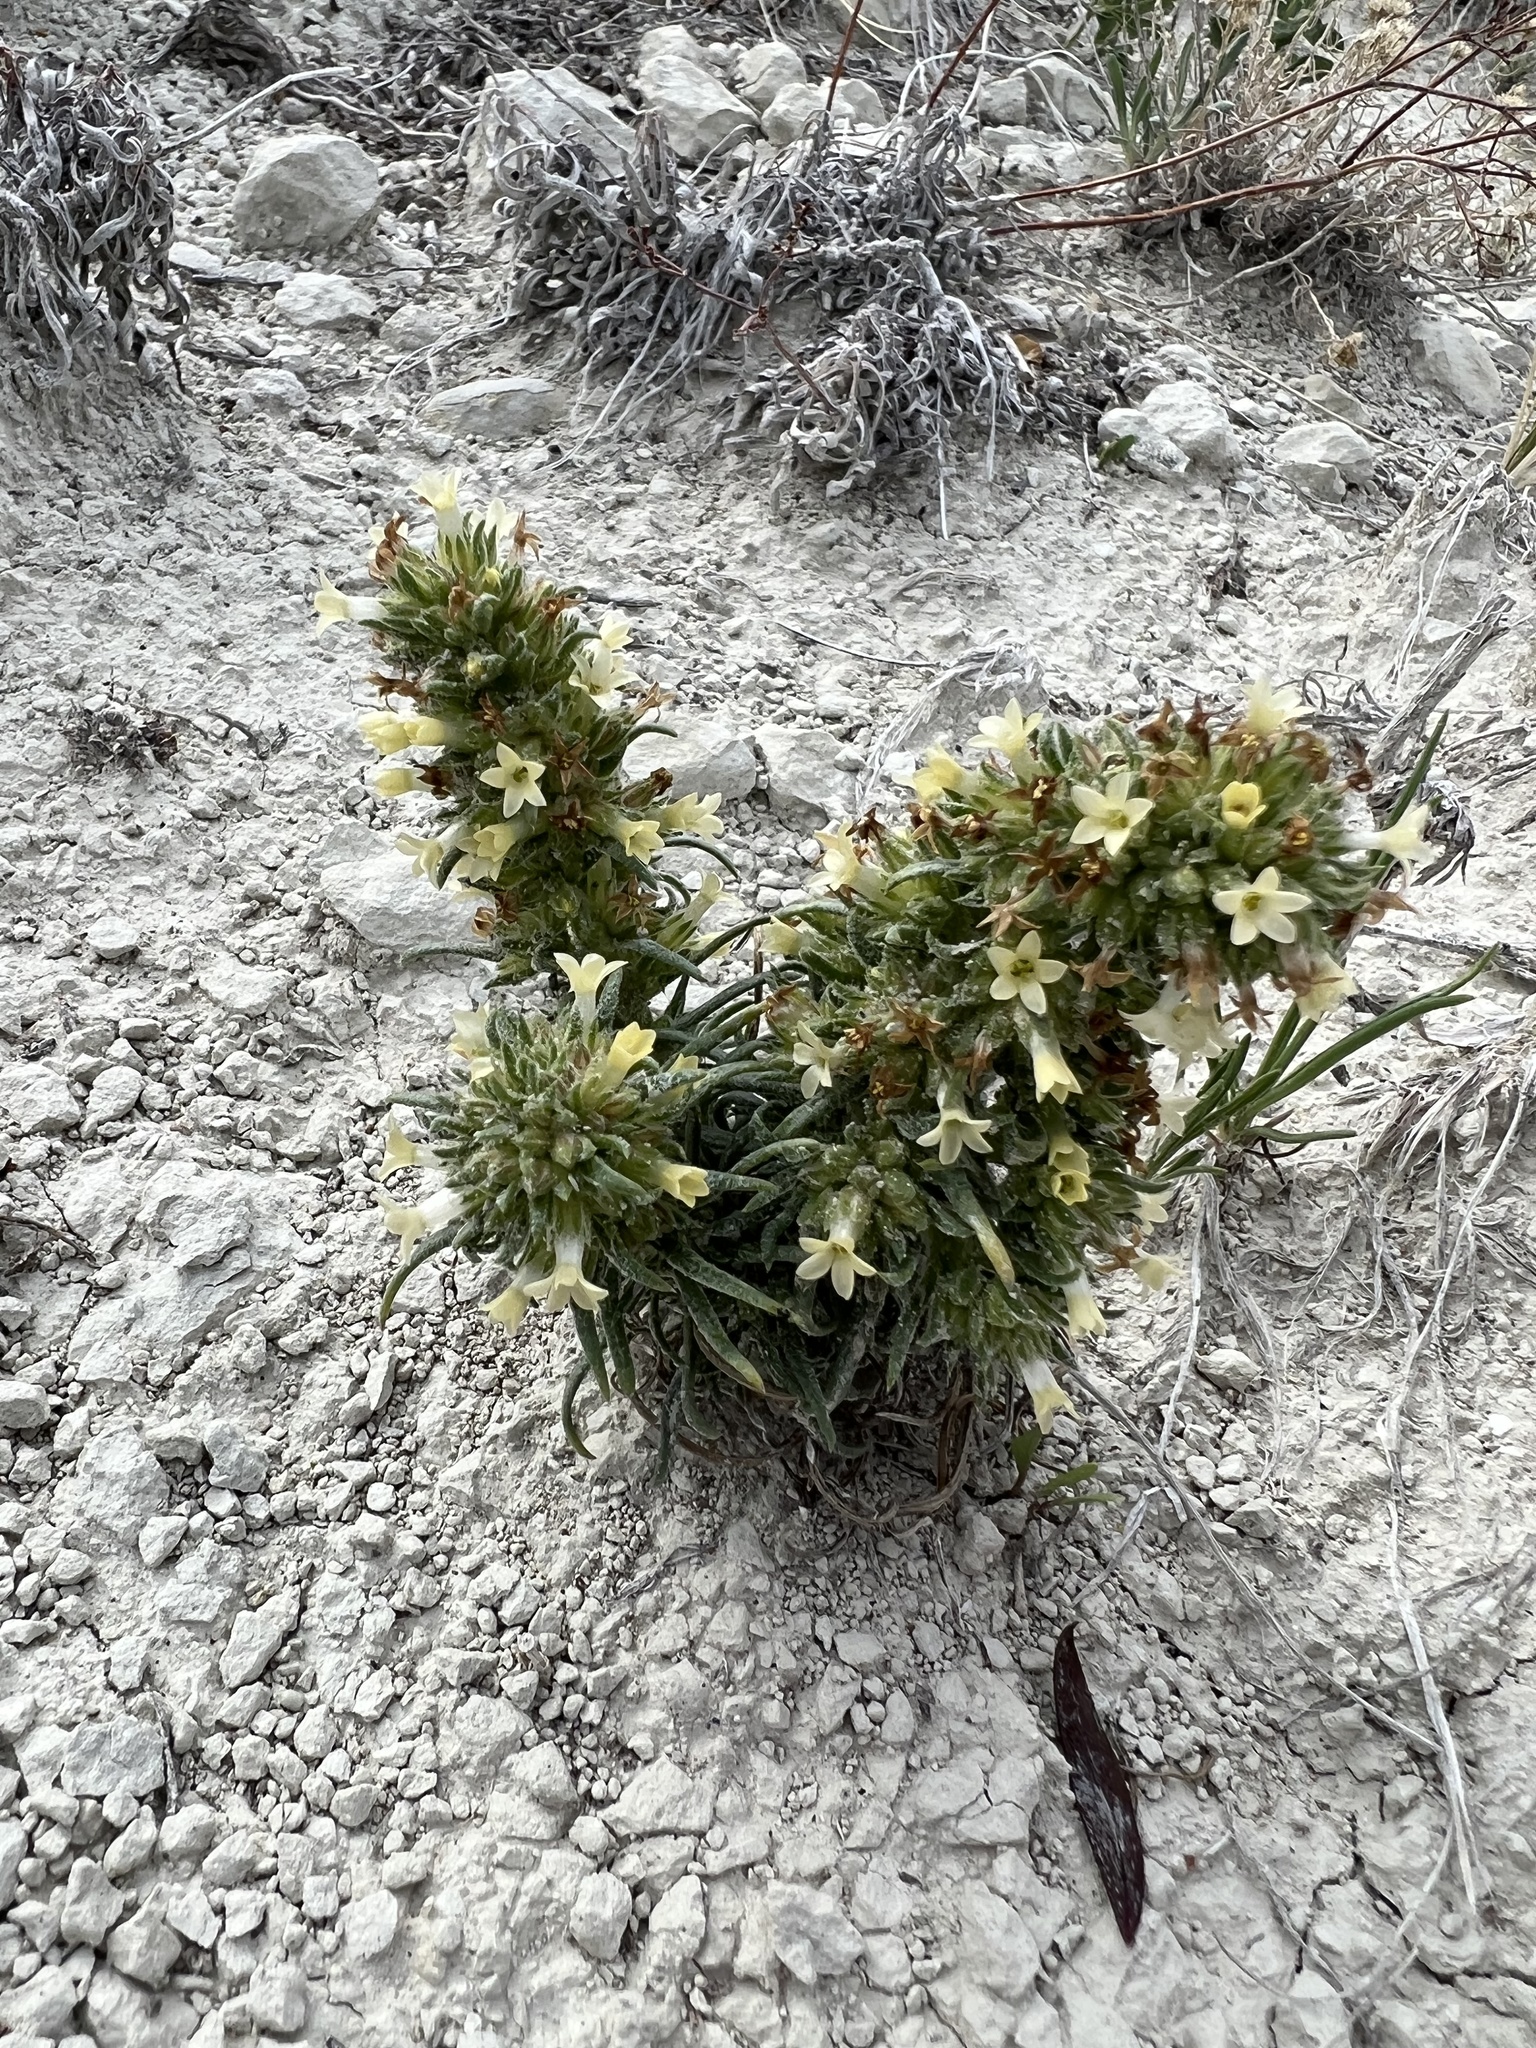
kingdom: Plantae
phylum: Tracheophyta
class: Magnoliopsida
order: Ericales
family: Polemoniaceae
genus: Ipomopsis
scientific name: Ipomopsis spicata
